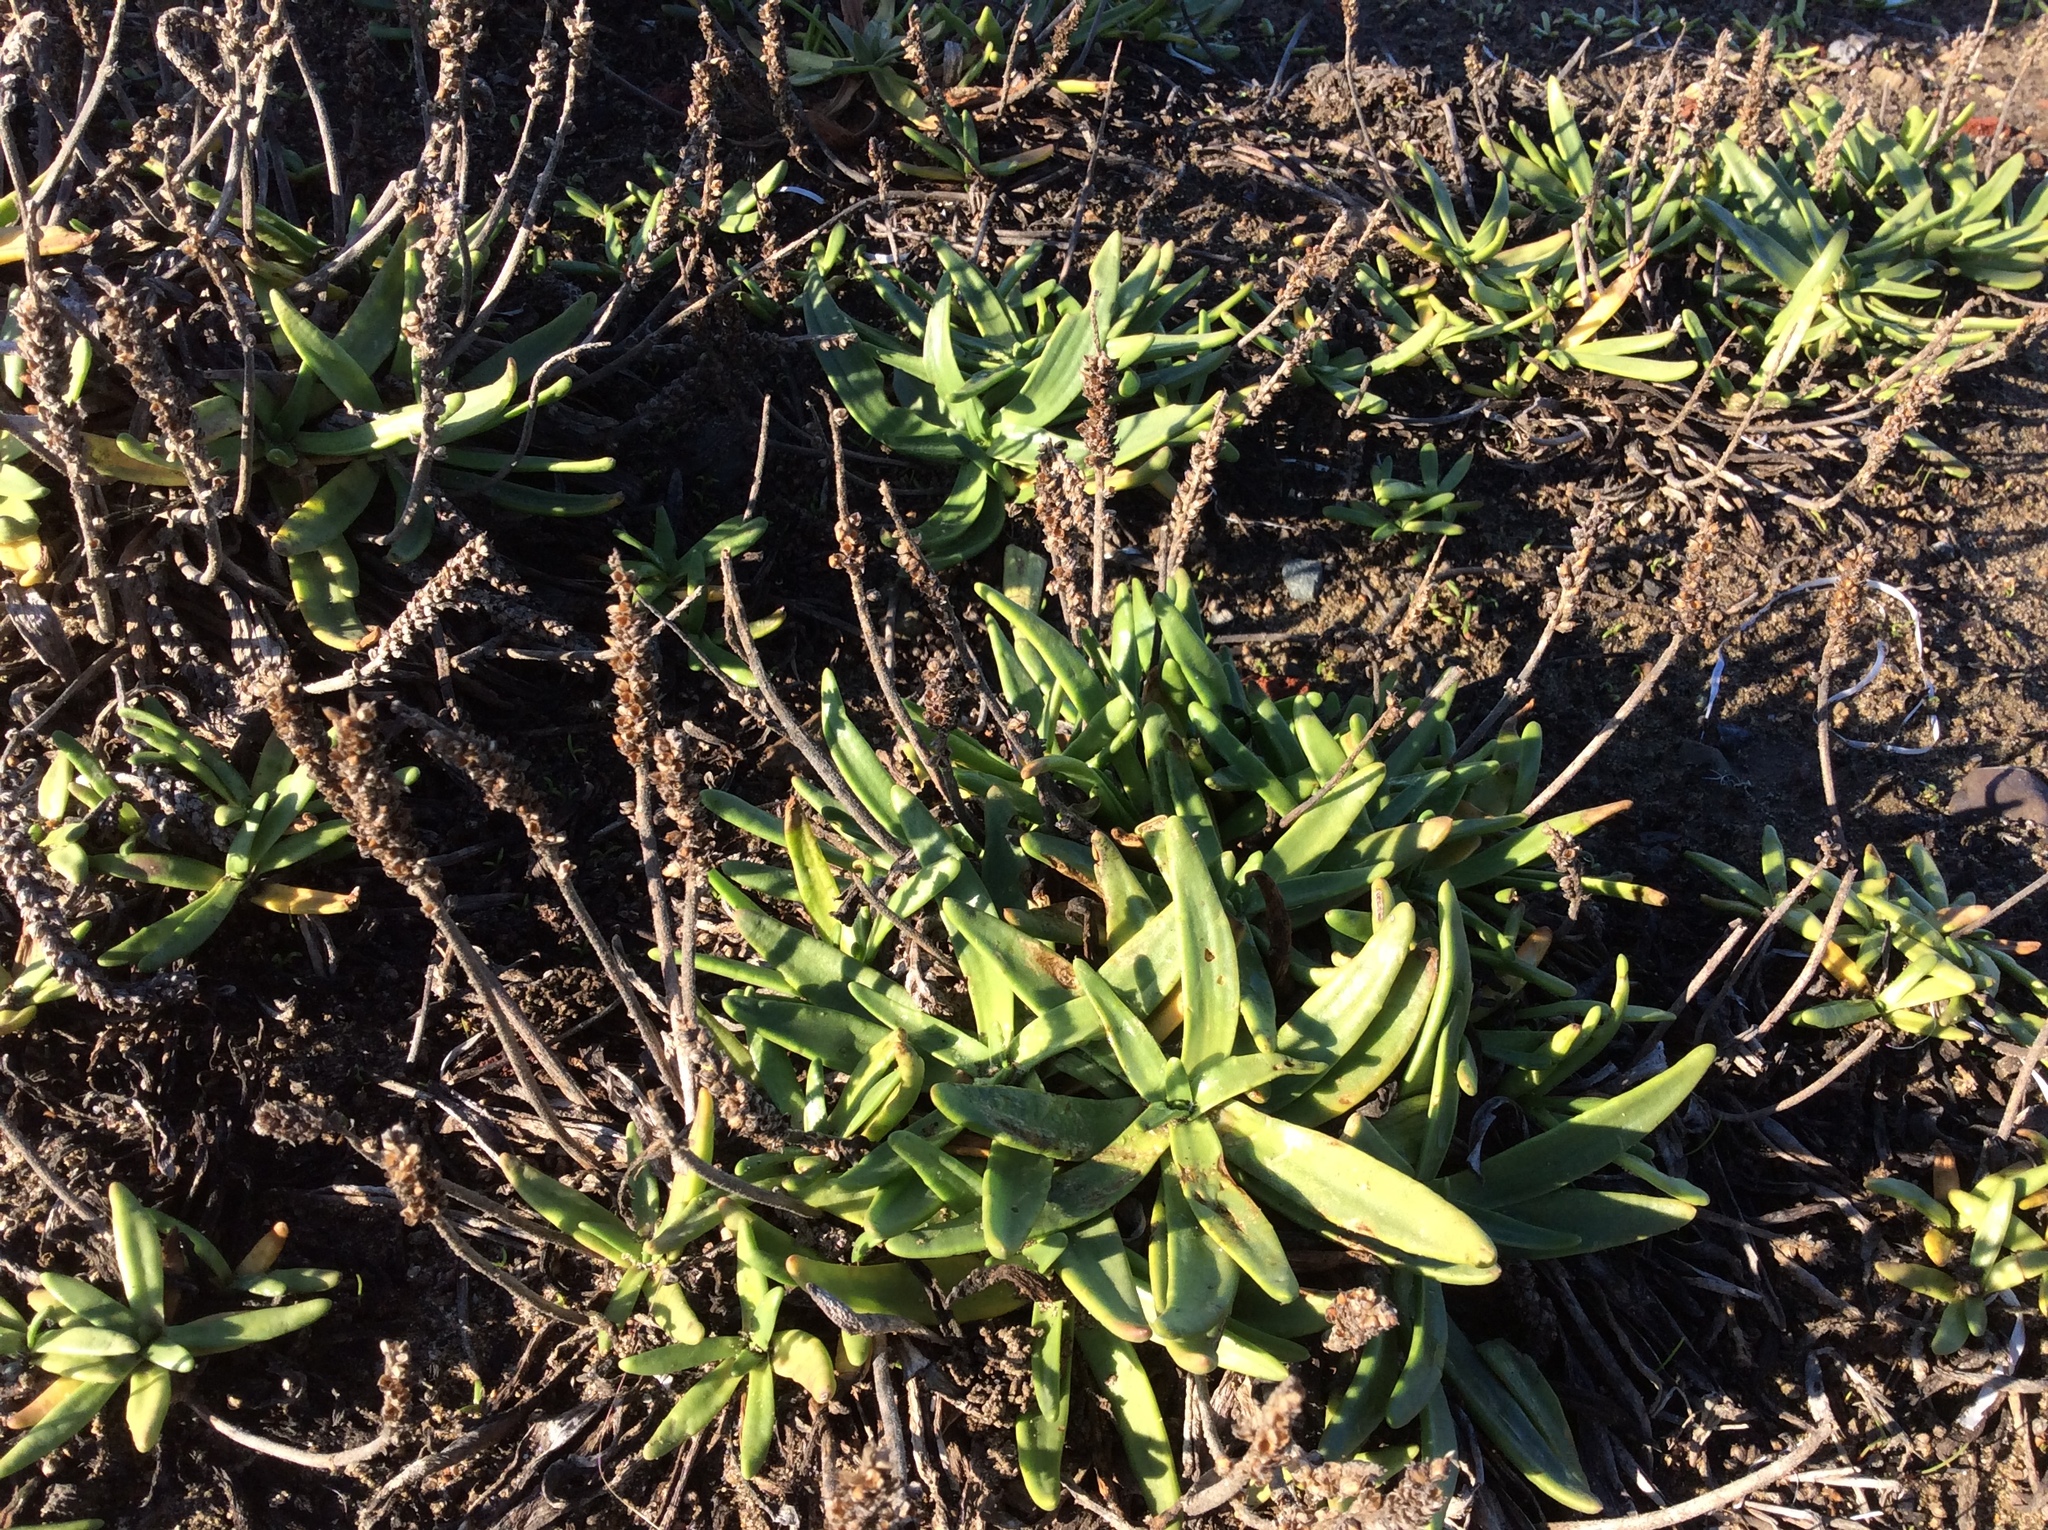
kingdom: Plantae
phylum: Tracheophyta
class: Magnoliopsida
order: Lamiales
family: Plantaginaceae
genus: Plantago
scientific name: Plantago maritima
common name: Sea plantain
